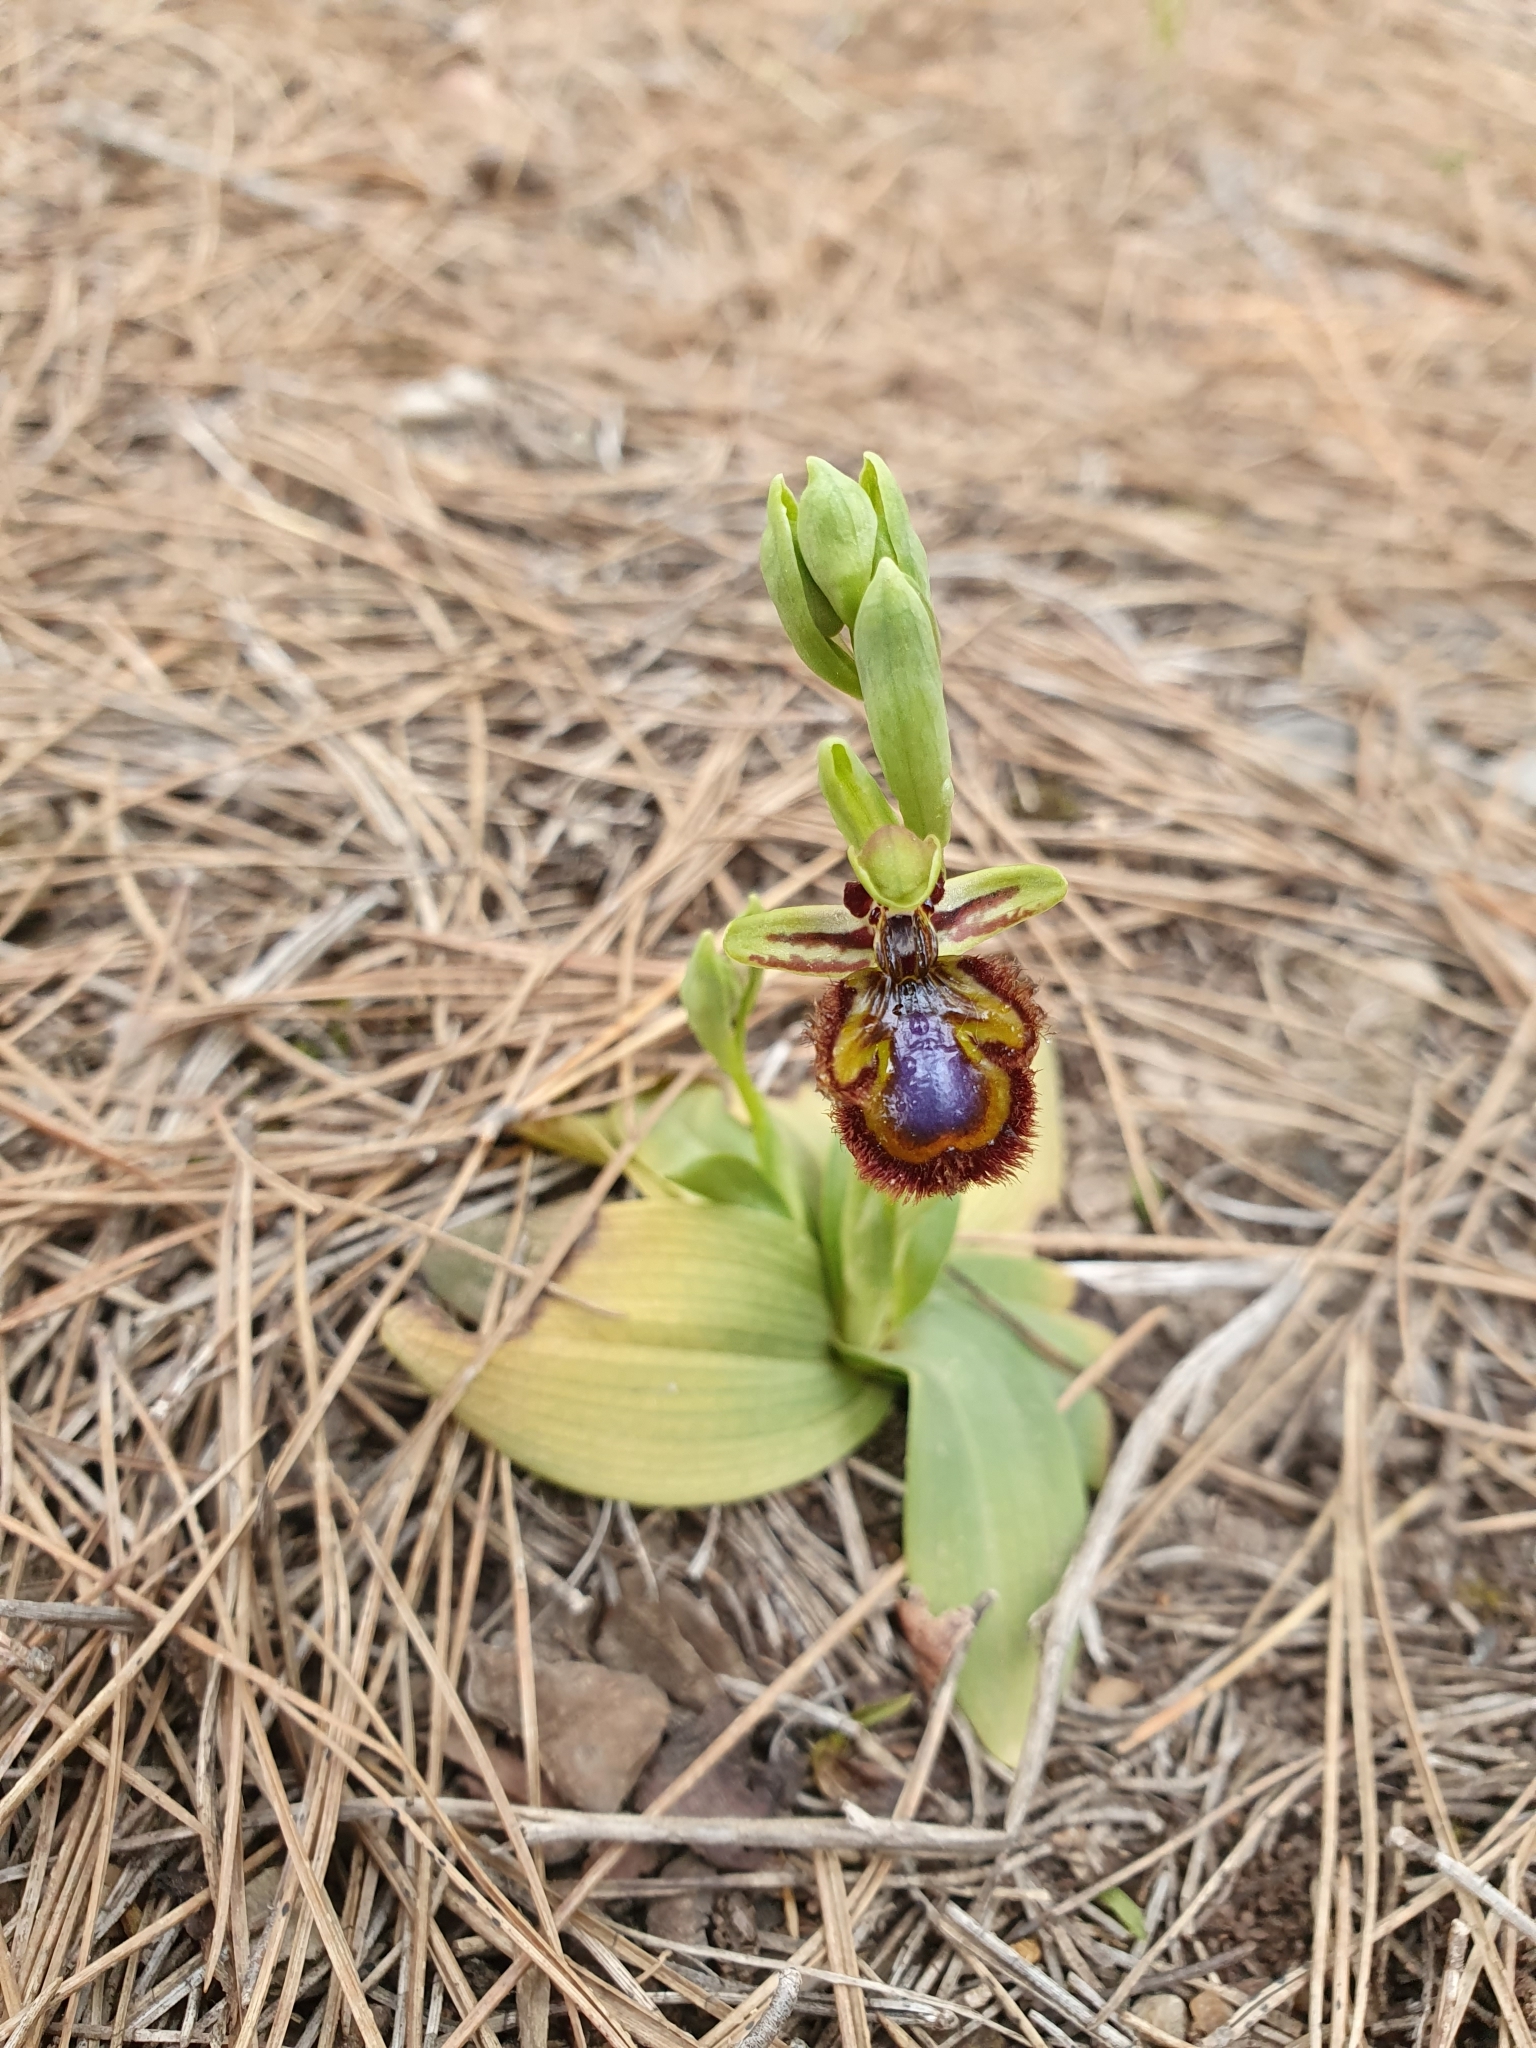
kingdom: Plantae
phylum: Tracheophyta
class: Liliopsida
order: Asparagales
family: Orchidaceae
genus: Ophrys
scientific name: Ophrys speculum
